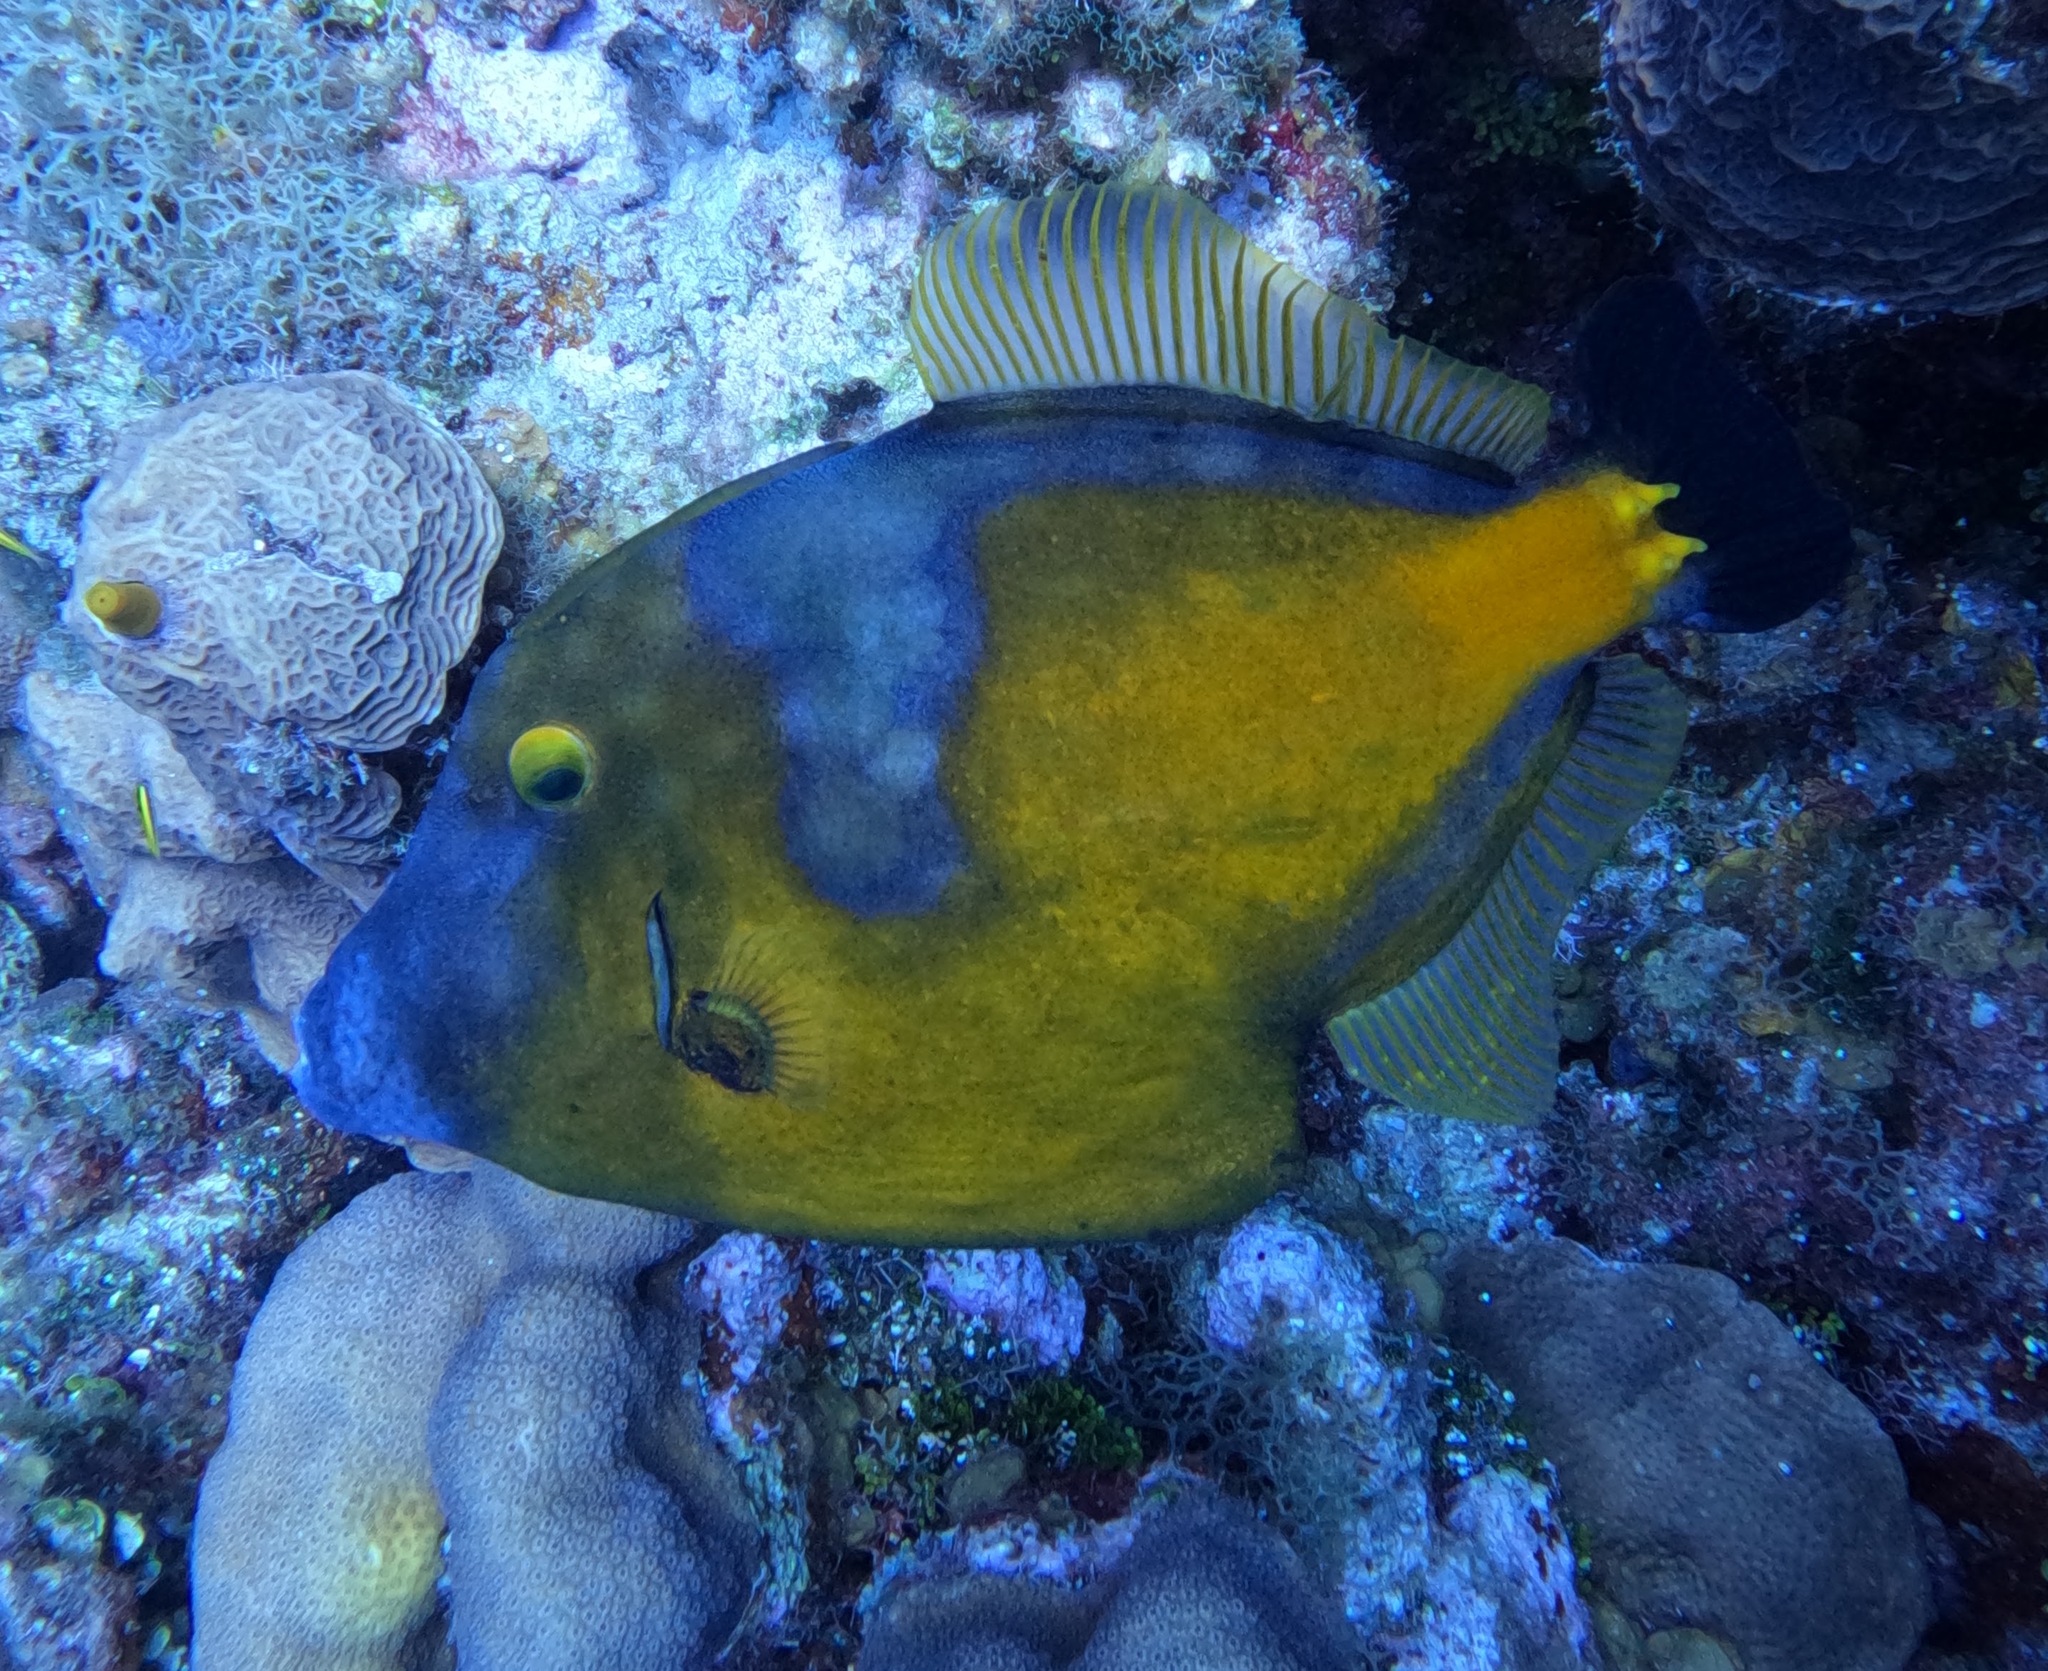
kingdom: Animalia
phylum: Chordata
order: Tetraodontiformes
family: Monacanthidae
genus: Cantherhines
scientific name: Cantherhines macrocerus
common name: Whitespotted filefish
